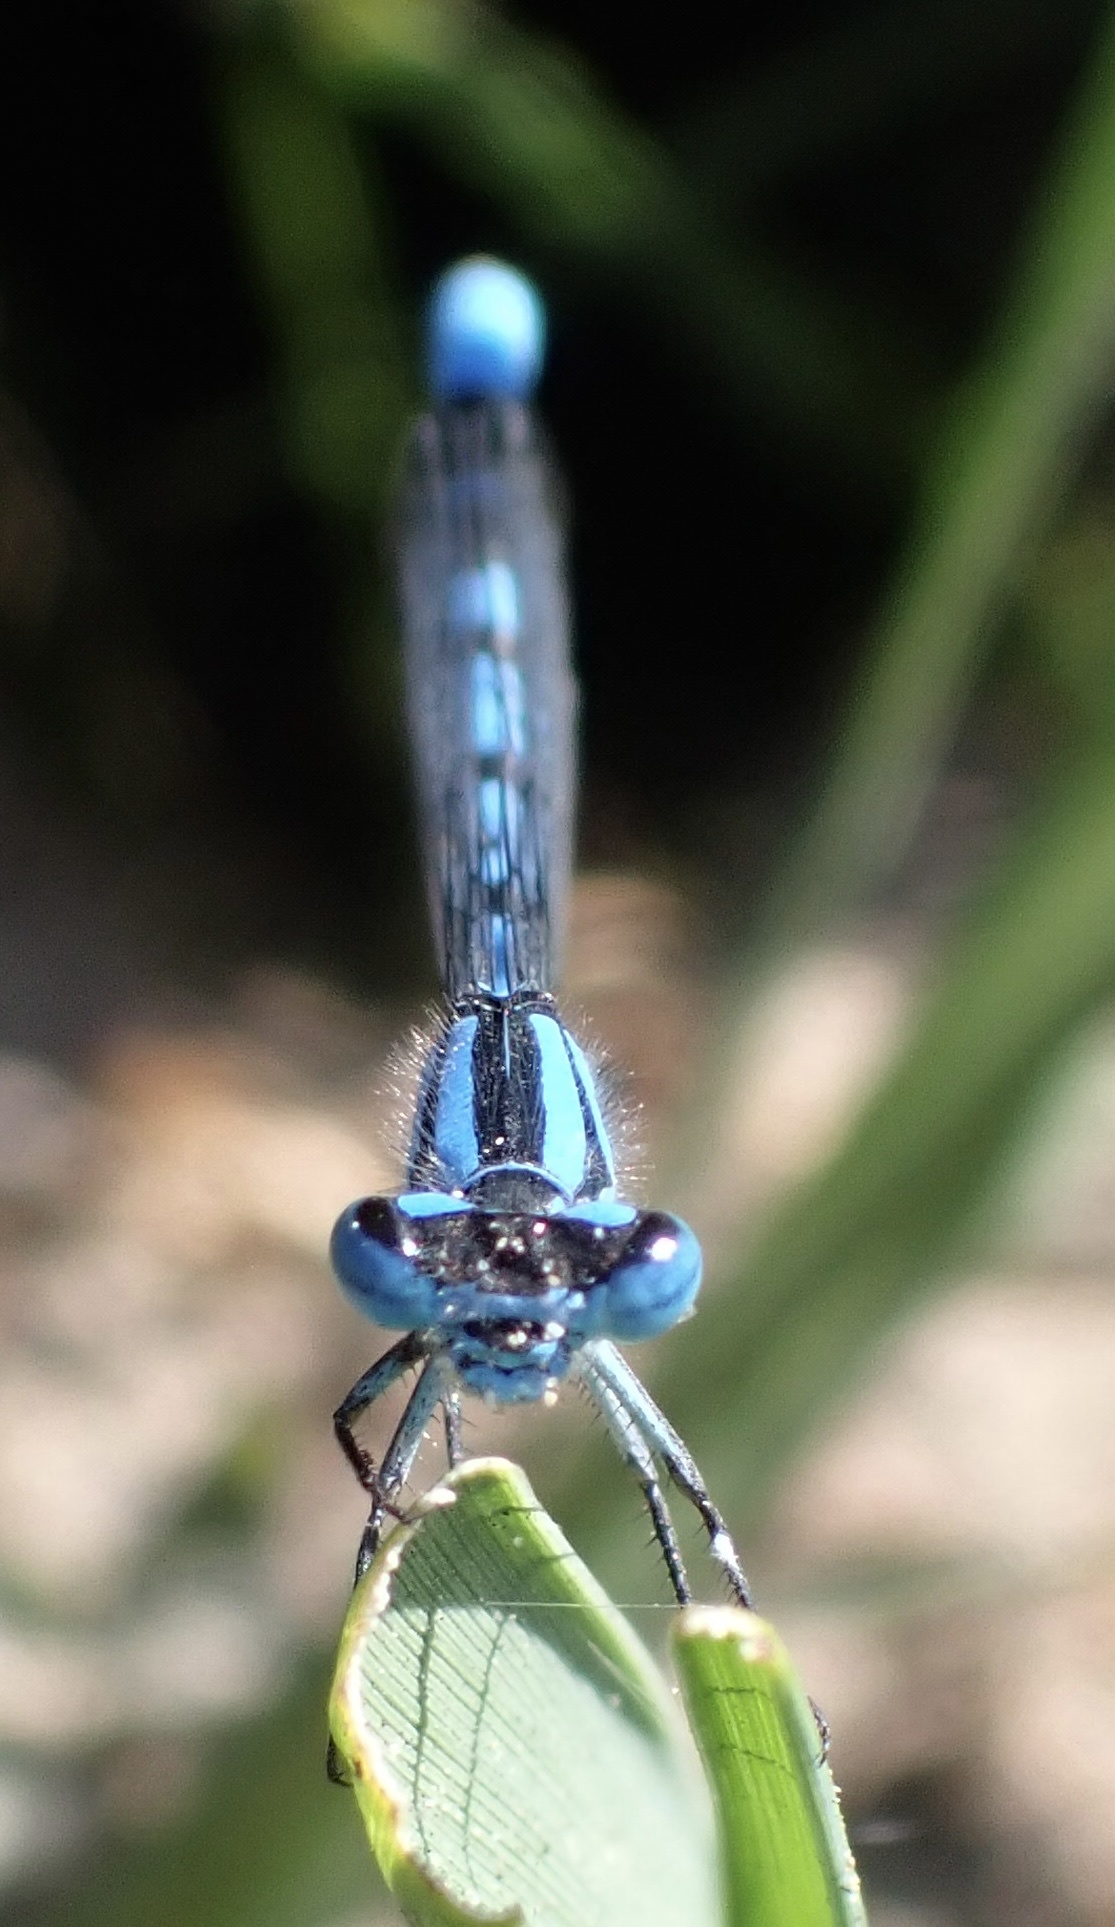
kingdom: Animalia
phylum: Arthropoda
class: Insecta
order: Odonata
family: Coenagrionidae
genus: Enallagma
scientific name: Enallagma cyathigerum
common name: Common blue damselfly
